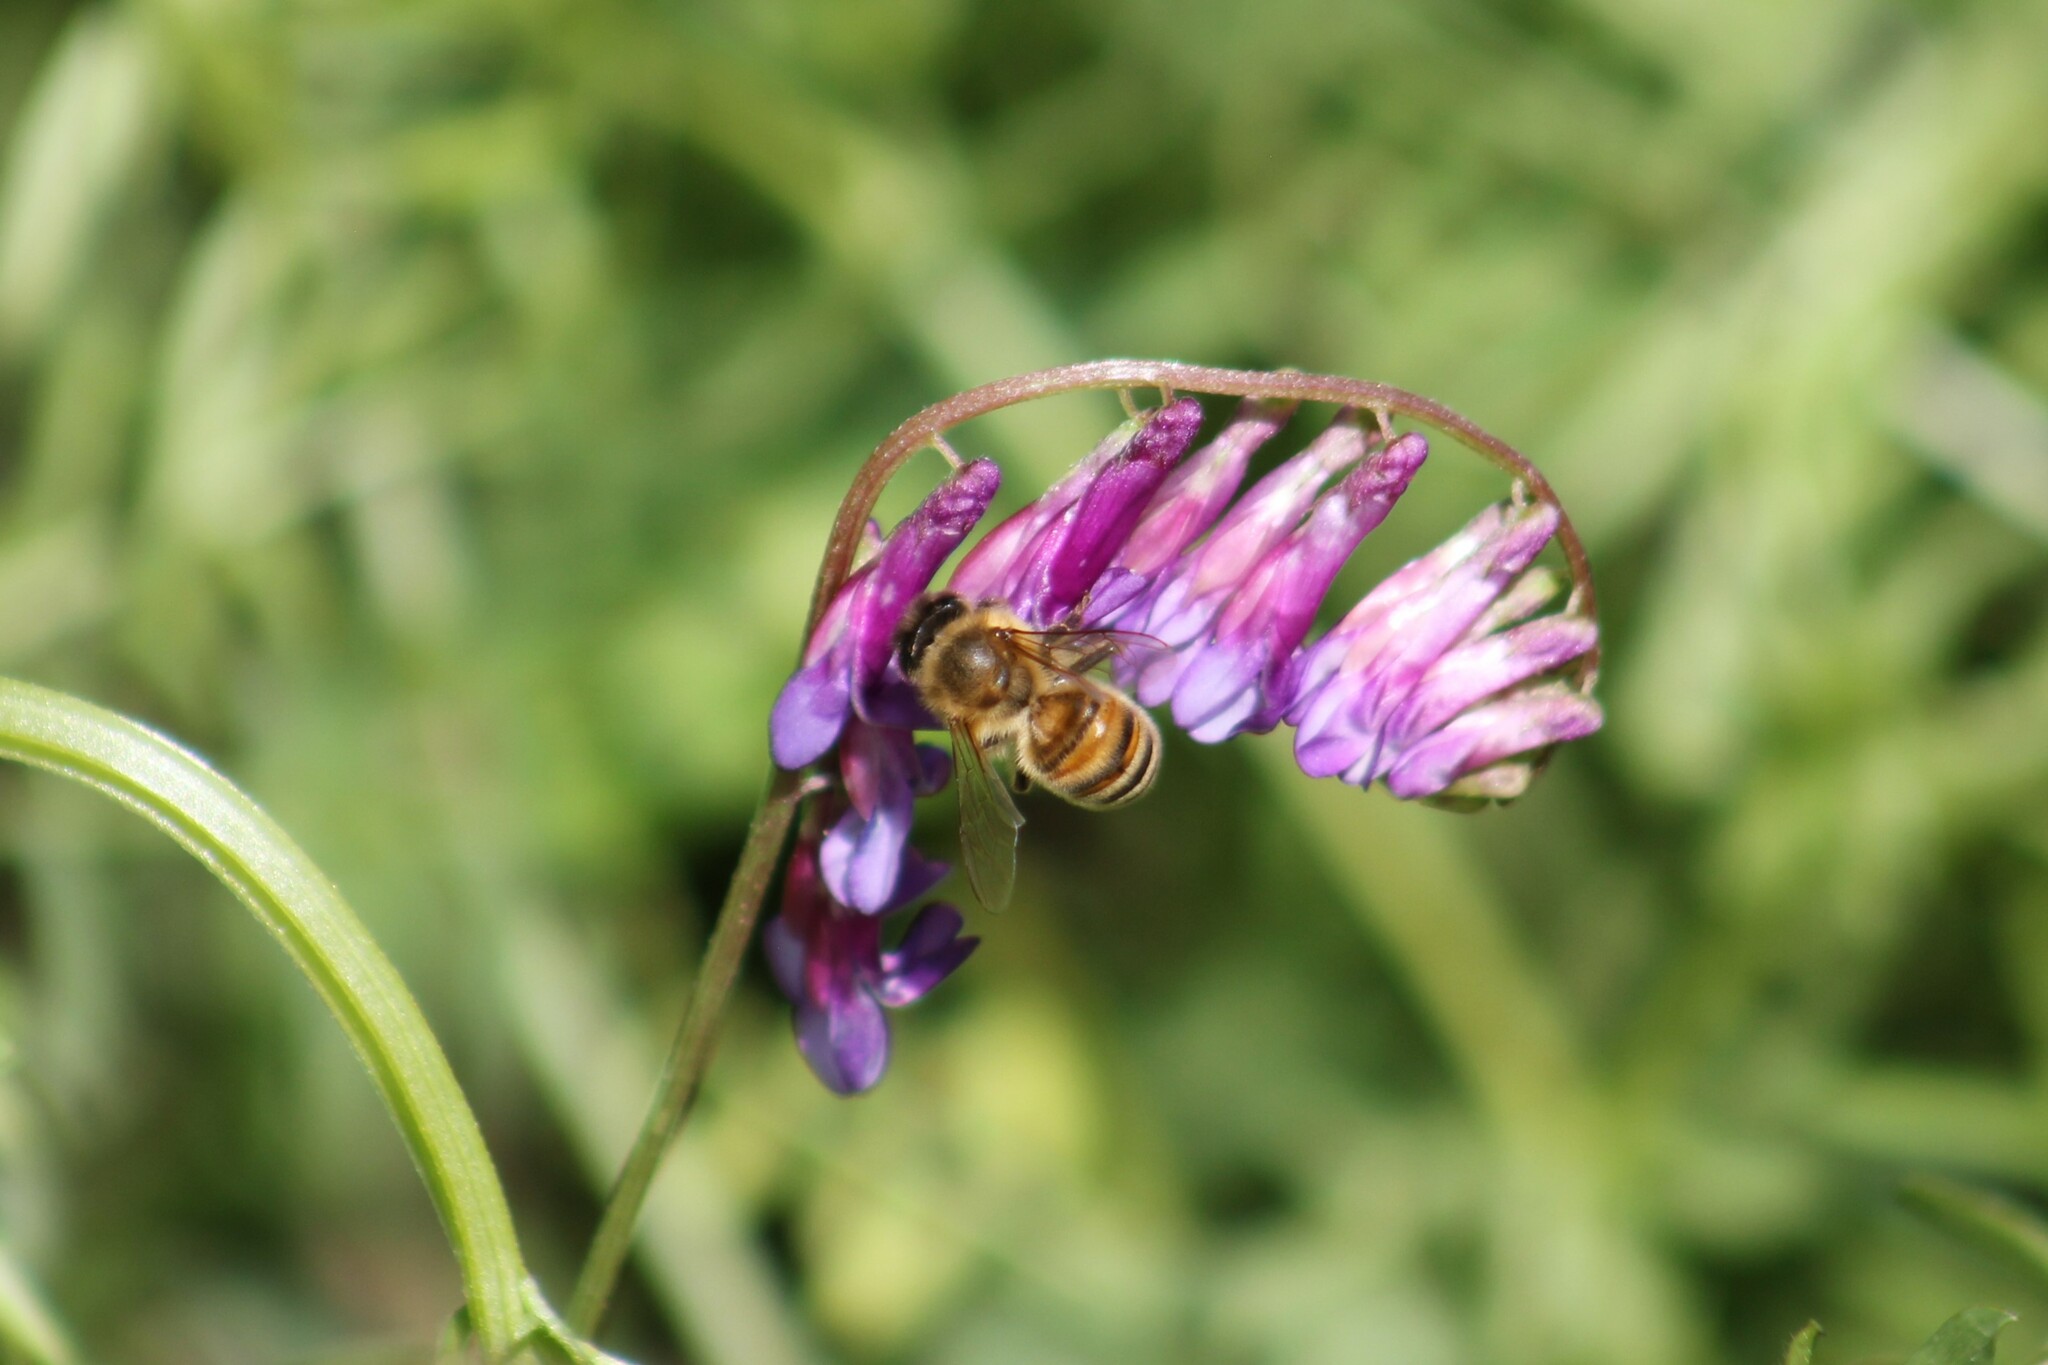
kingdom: Animalia
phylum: Arthropoda
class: Insecta
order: Hymenoptera
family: Apidae
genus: Apis
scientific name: Apis mellifera
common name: Honey bee
